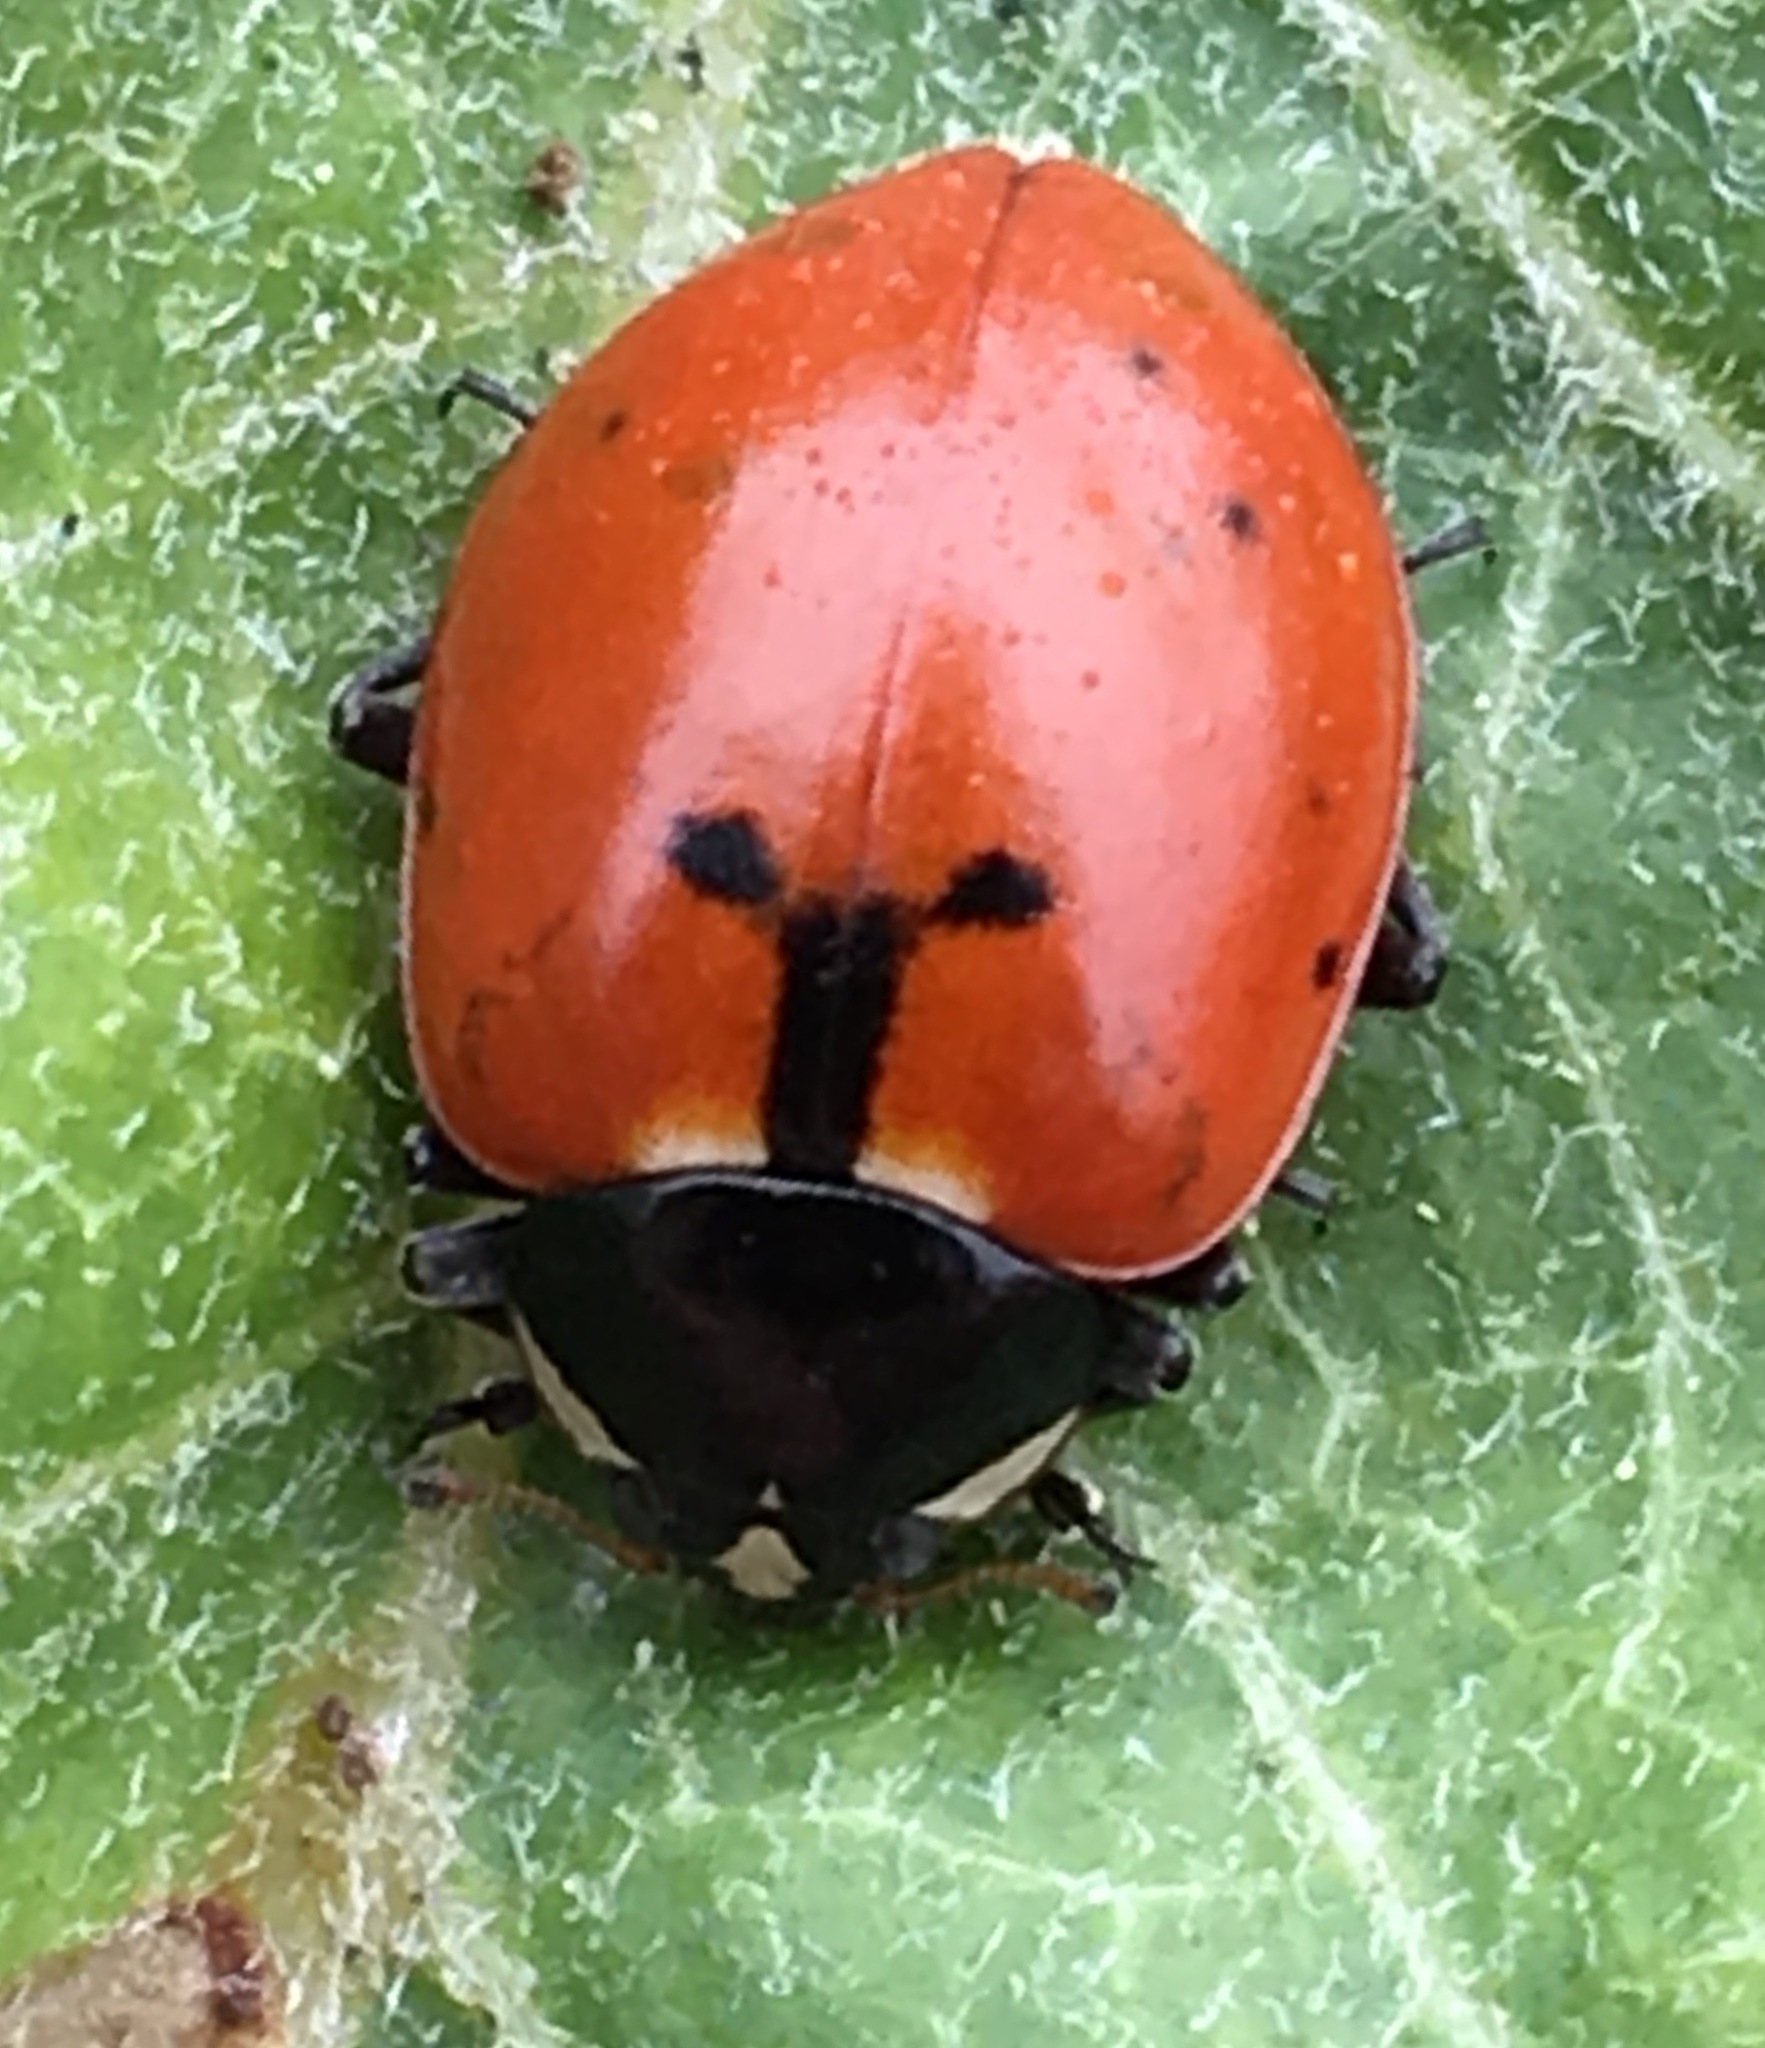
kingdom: Animalia
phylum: Arthropoda
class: Insecta
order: Coleoptera
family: Coccinellidae
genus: Hippodamia
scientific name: Hippodamia quinquesignata
